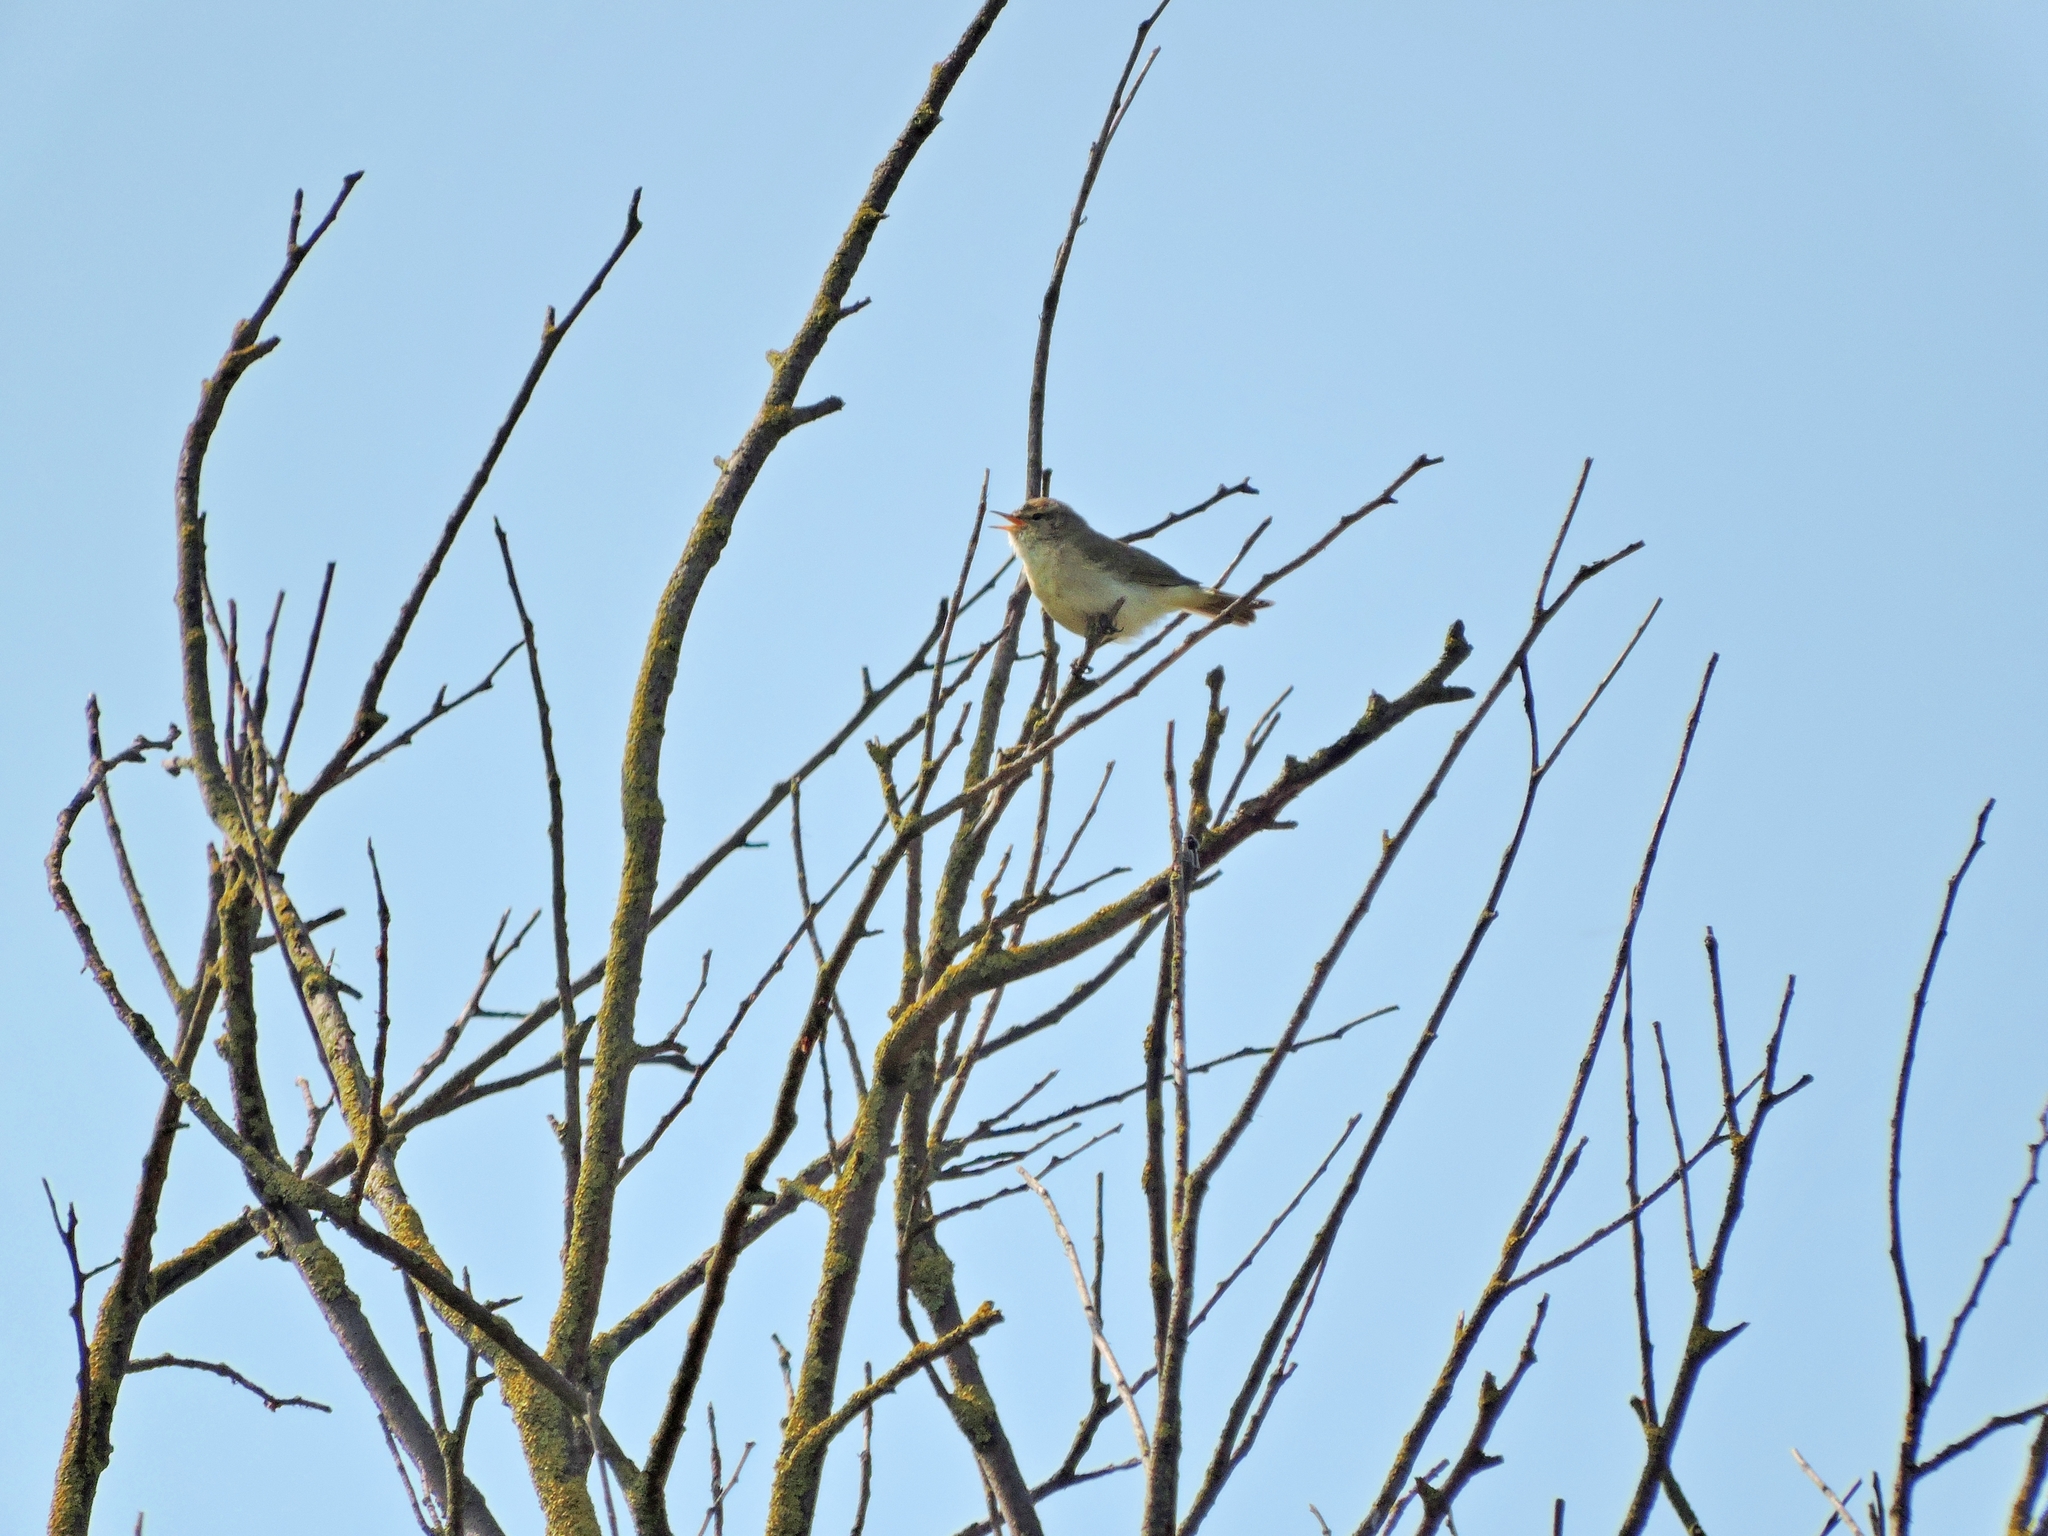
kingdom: Animalia
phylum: Chordata
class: Aves
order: Passeriformes
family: Phylloscopidae
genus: Phylloscopus
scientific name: Phylloscopus collybita
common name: Common chiffchaff
